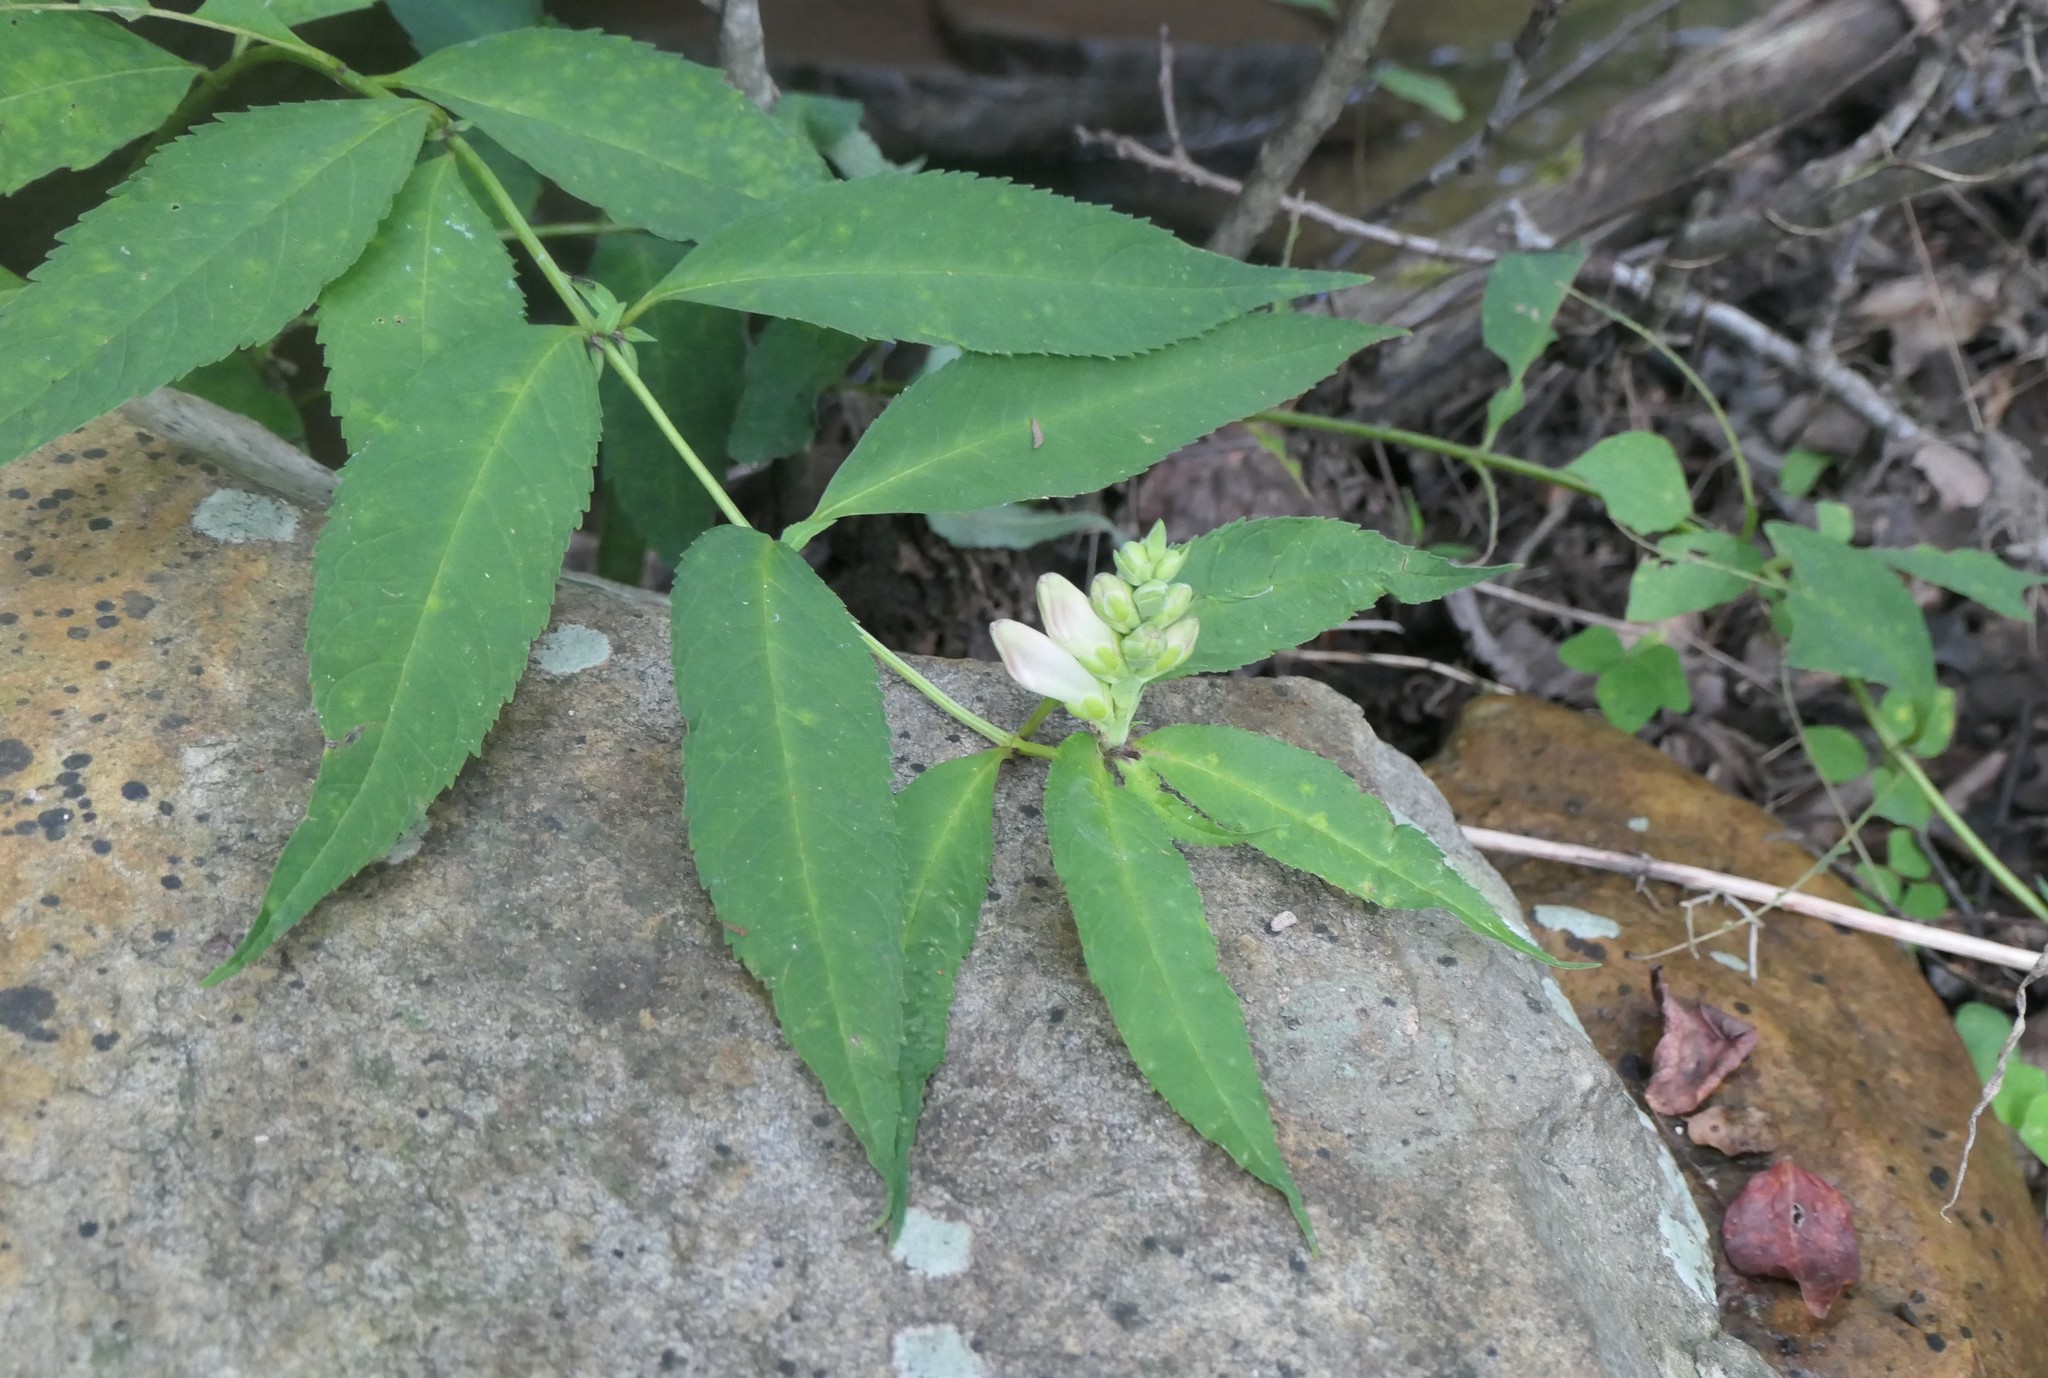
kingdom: Plantae
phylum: Tracheophyta
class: Magnoliopsida
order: Lamiales
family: Plantaginaceae
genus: Chelone
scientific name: Chelone glabra
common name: Snakehead
